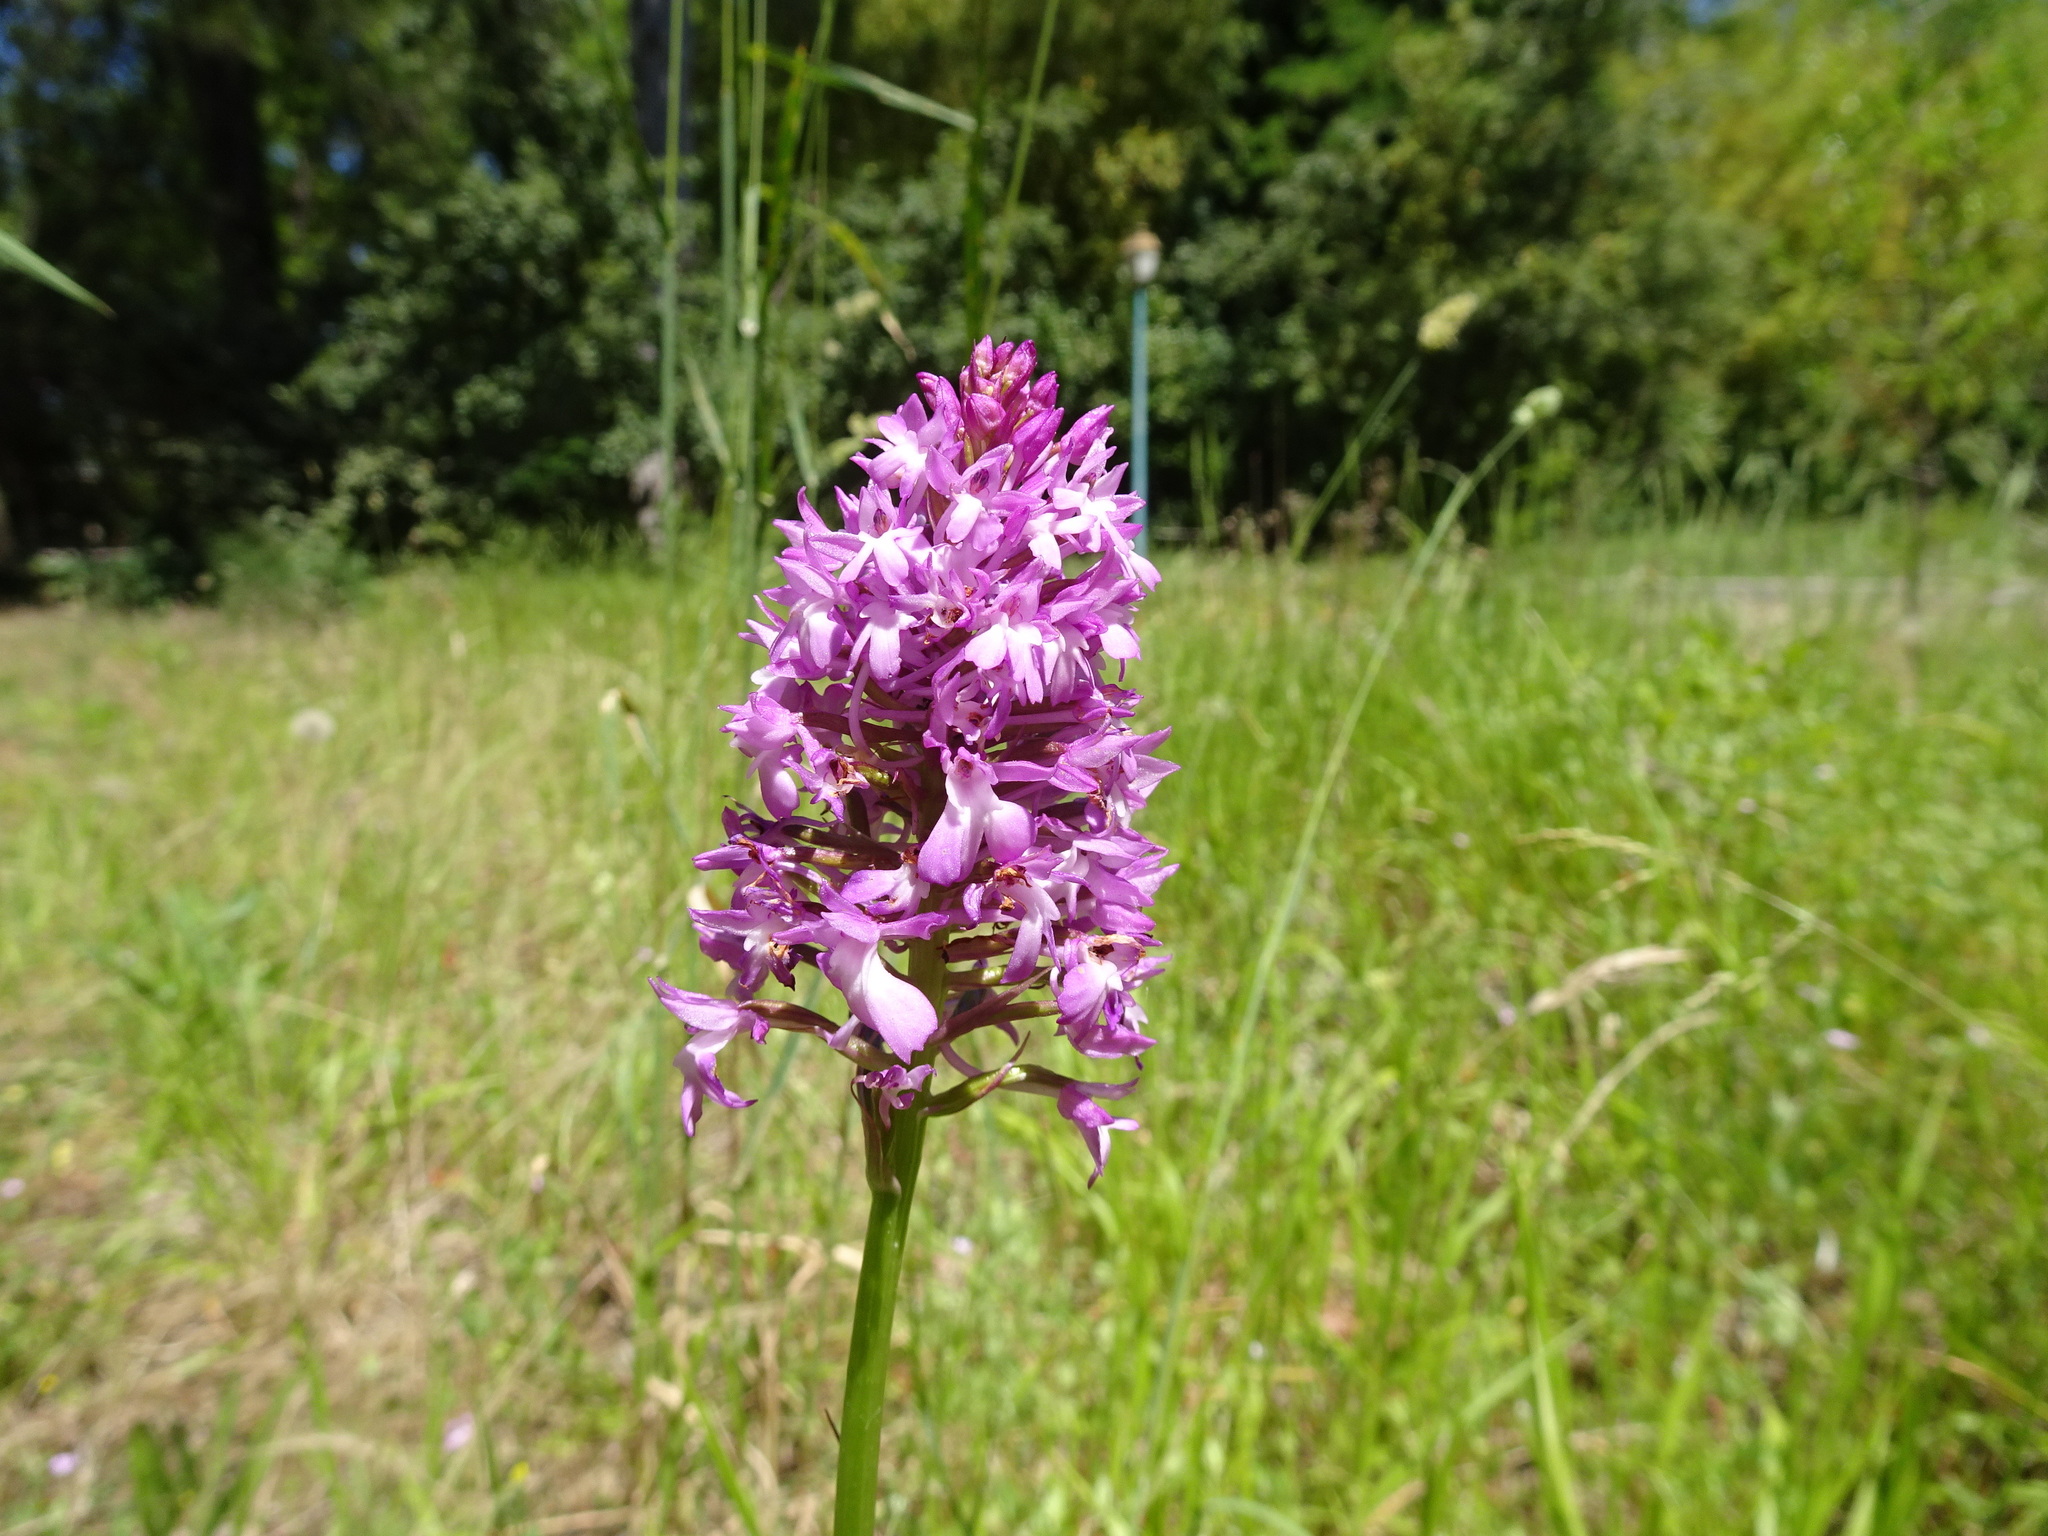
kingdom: Plantae
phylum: Tracheophyta
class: Liliopsida
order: Asparagales
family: Orchidaceae
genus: Anacamptis
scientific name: Anacamptis pyramidalis
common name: Pyramidal orchid
